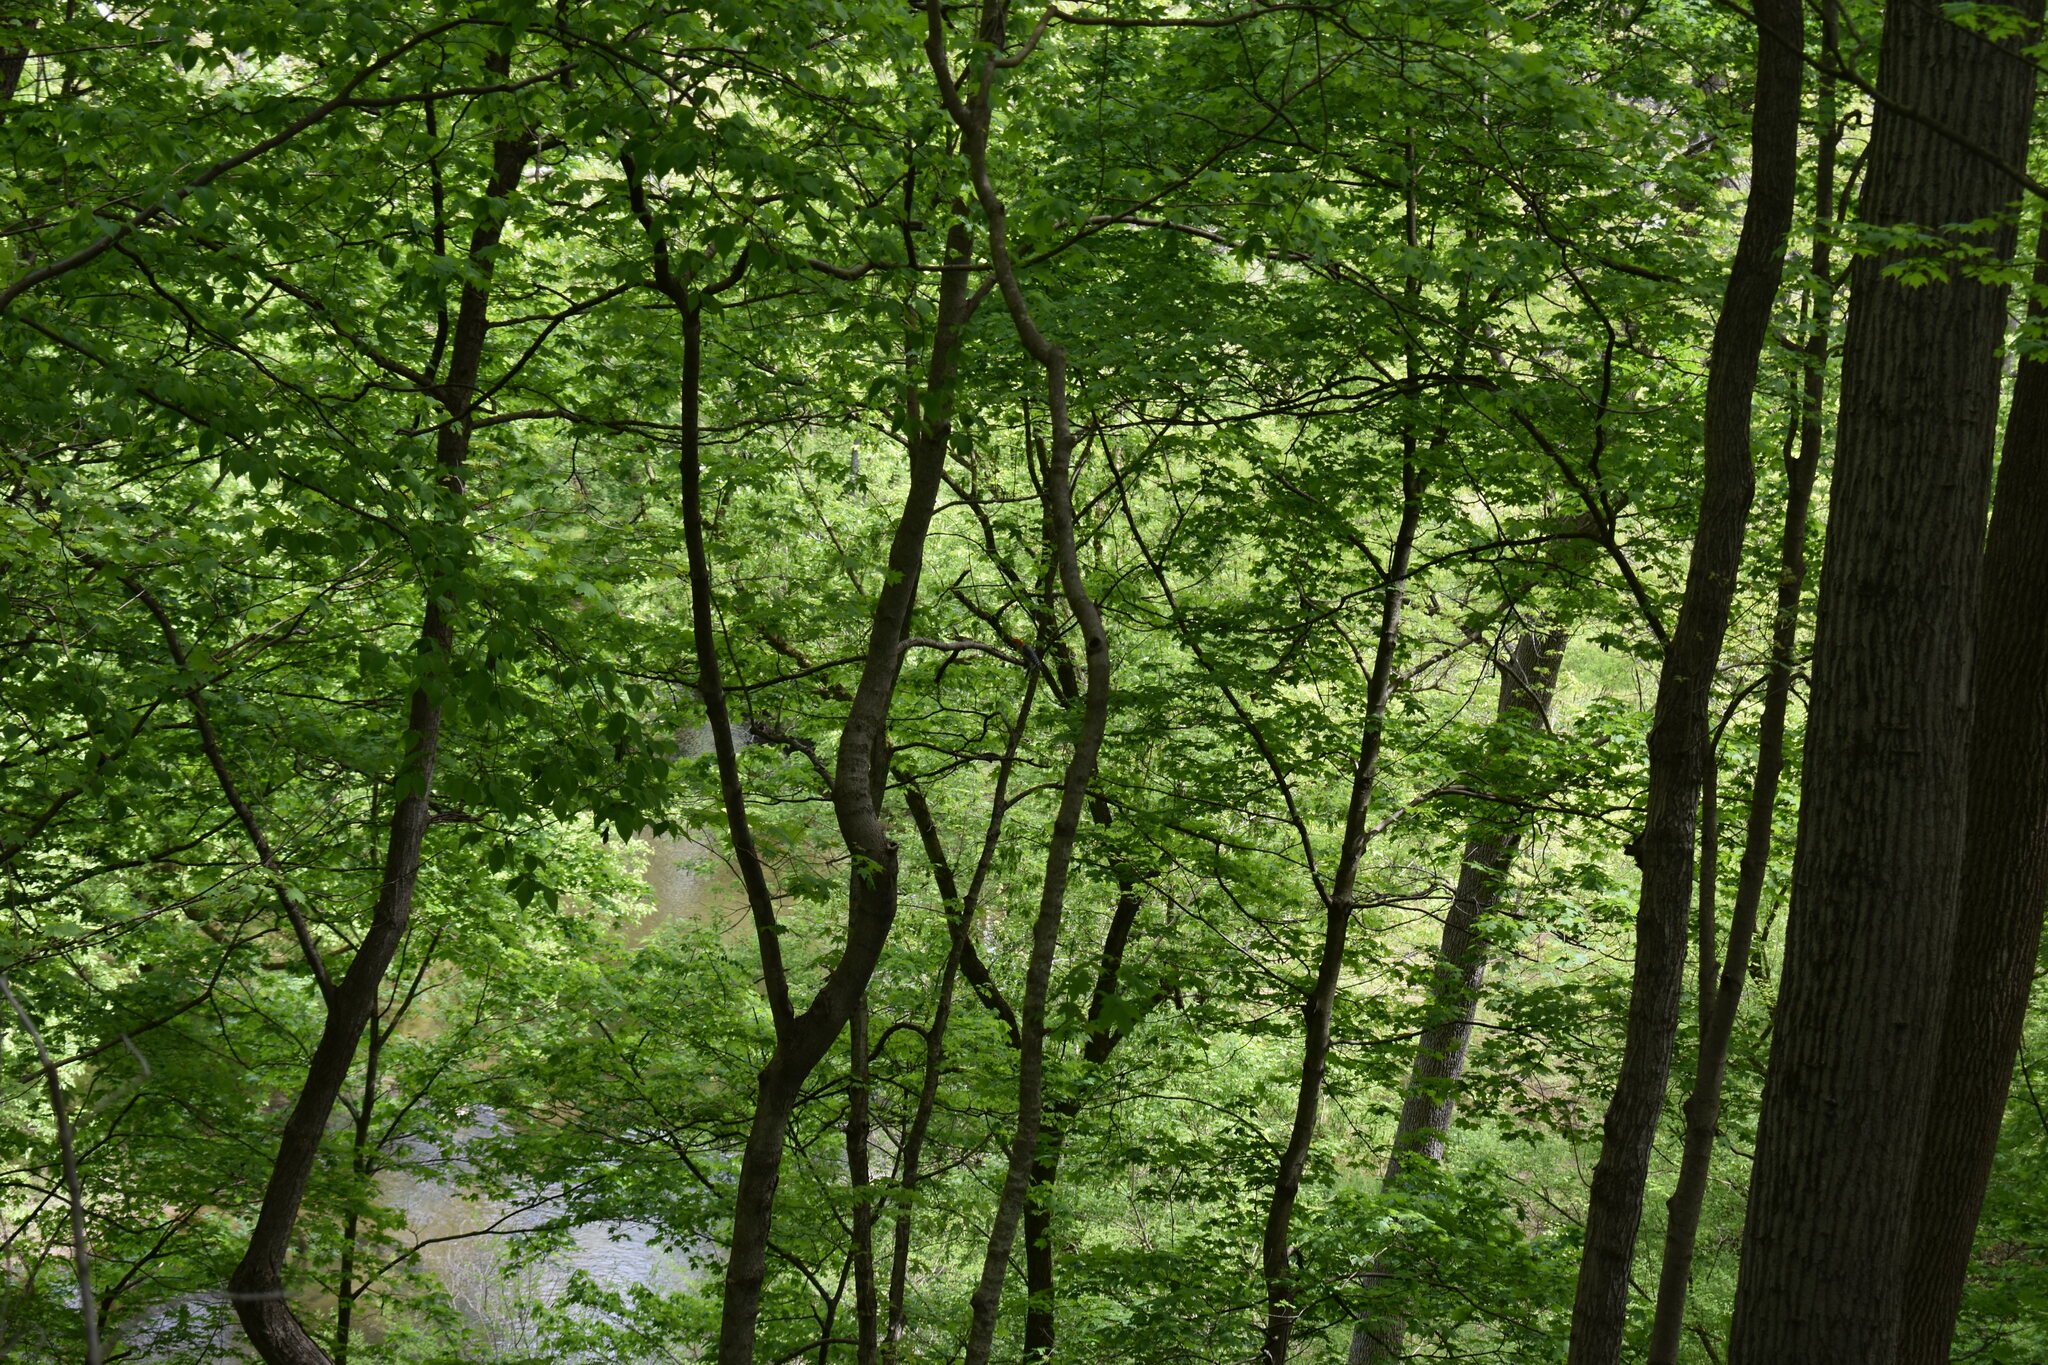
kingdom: Animalia
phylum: Chordata
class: Aves
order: Piciformes
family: Picidae
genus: Melanerpes
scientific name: Melanerpes carolinus
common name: Red-bellied woodpecker
